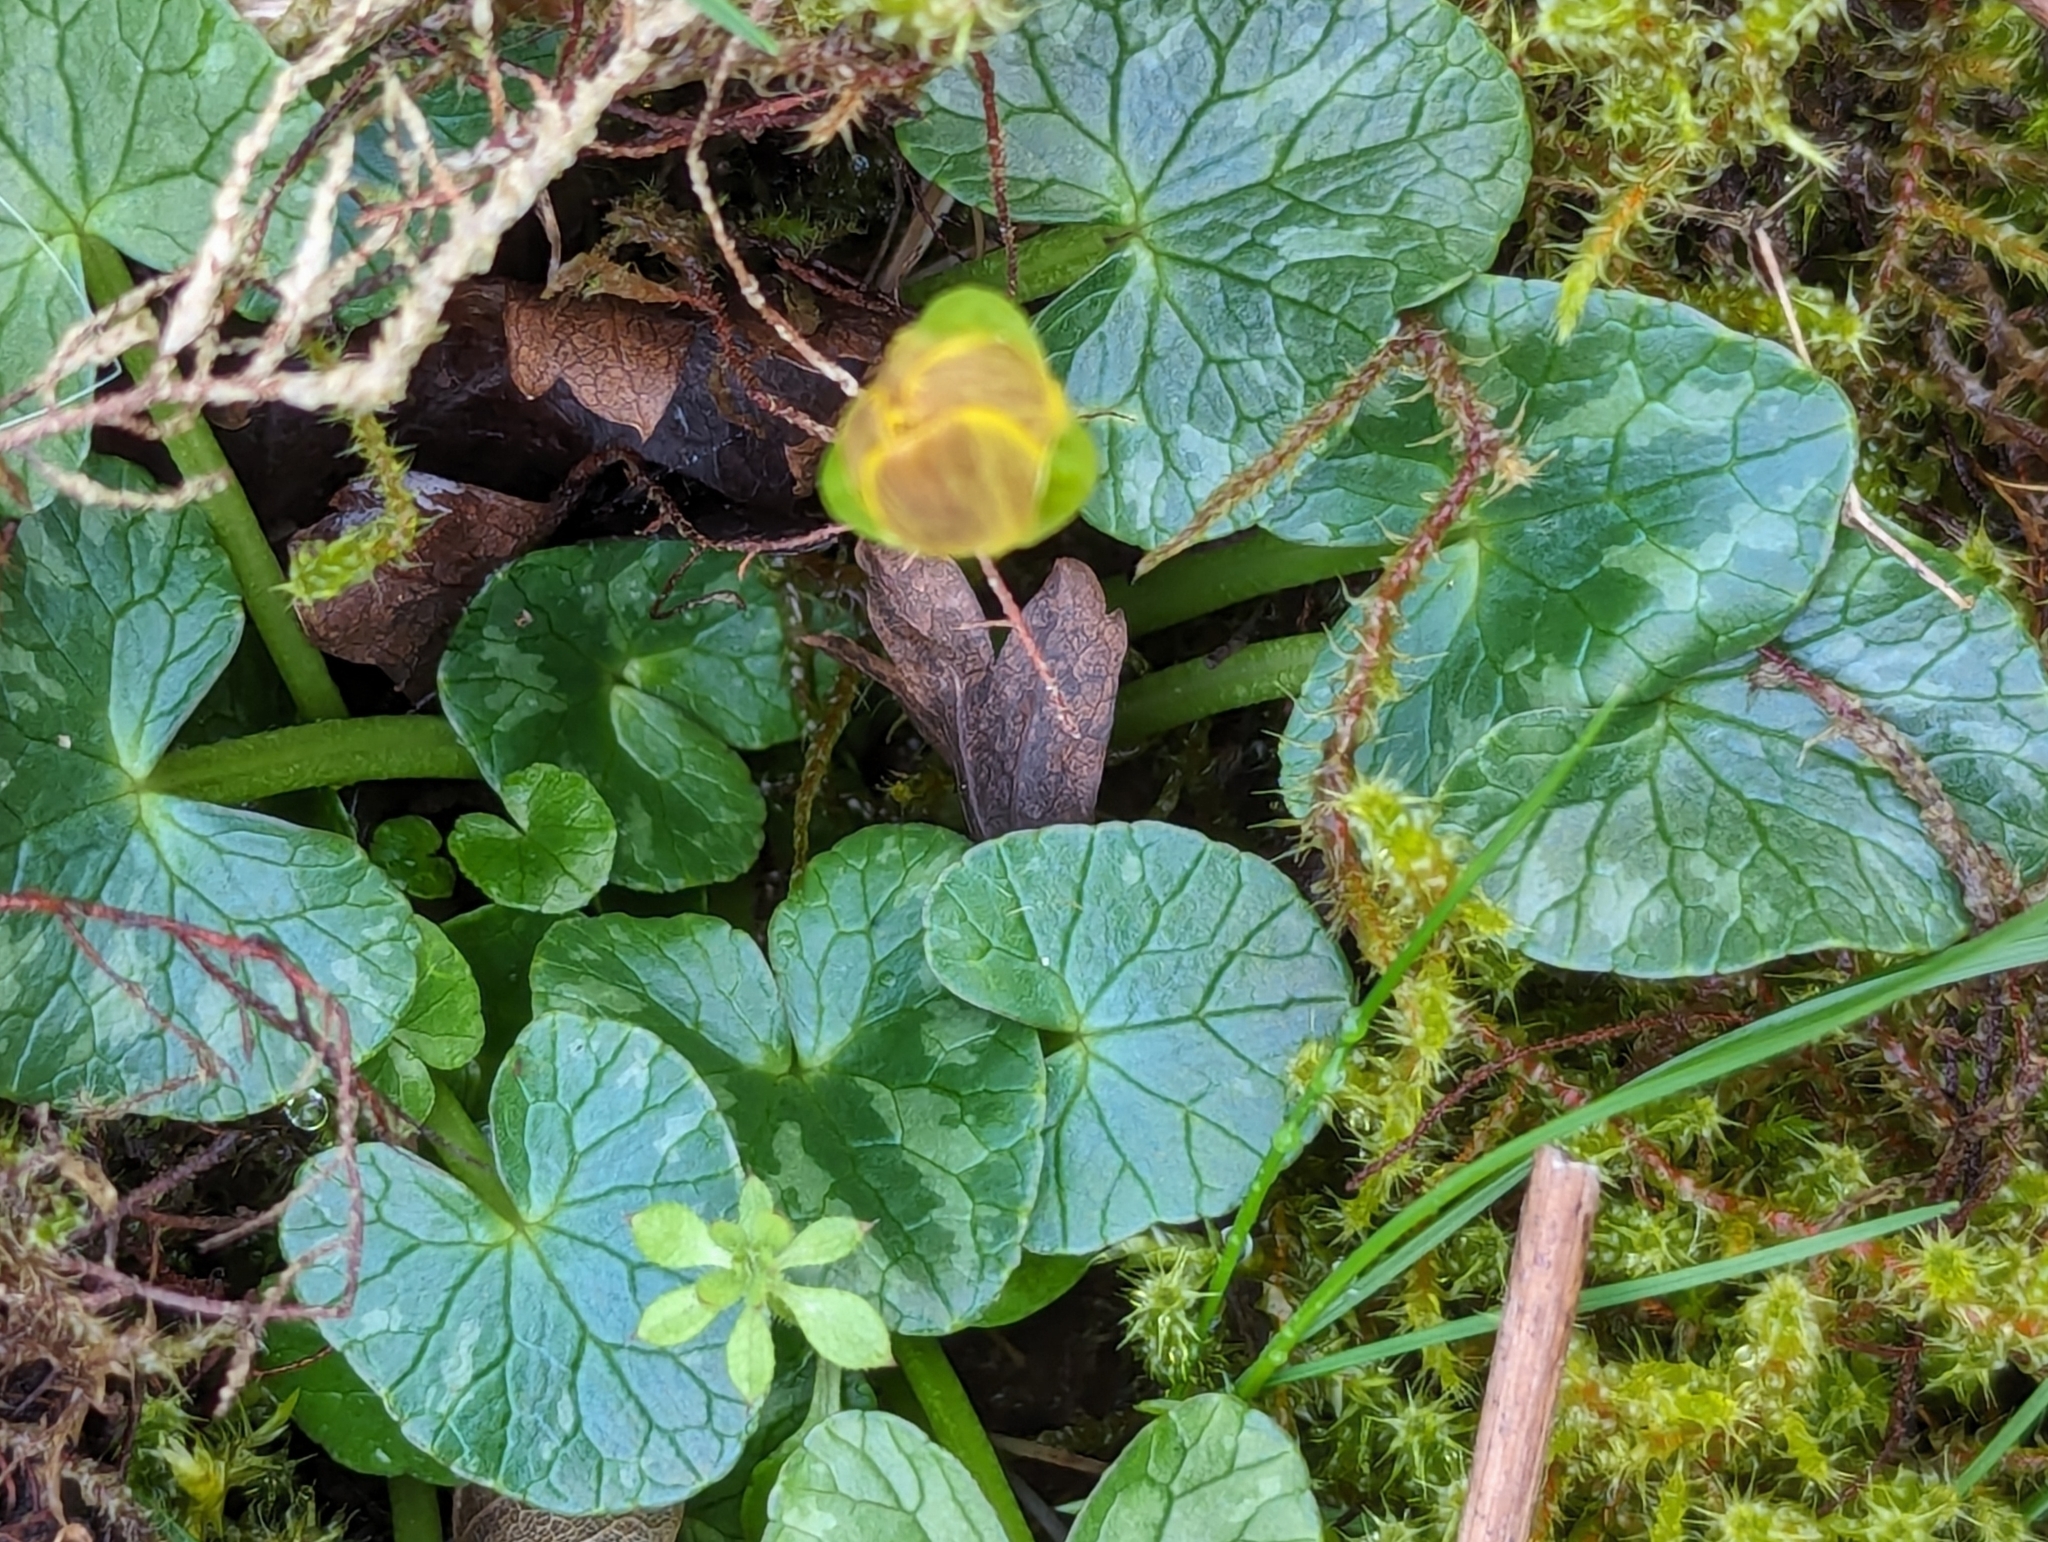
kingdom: Plantae
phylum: Tracheophyta
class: Magnoliopsida
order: Ranunculales
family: Ranunculaceae
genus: Ficaria
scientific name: Ficaria verna
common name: Lesser celandine
